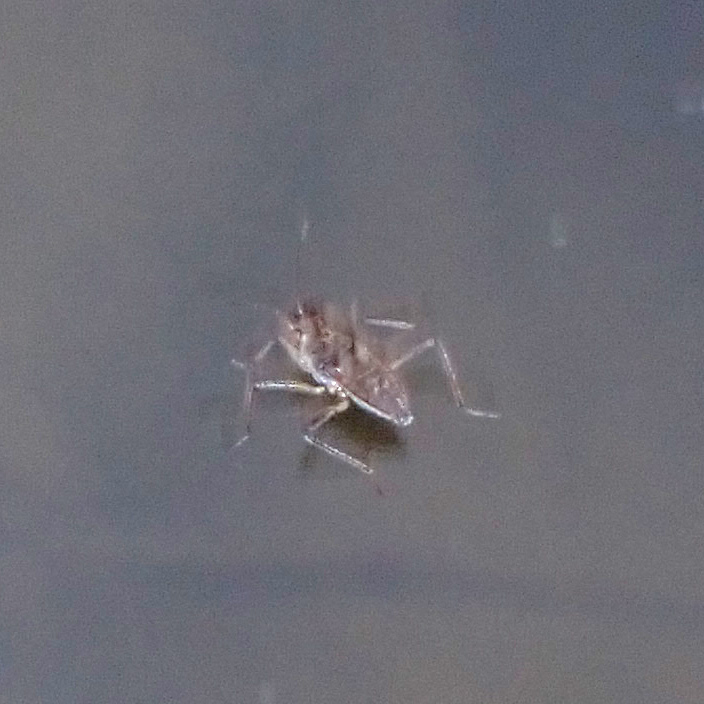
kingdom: Animalia
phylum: Arthropoda
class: Insecta
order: Hemiptera
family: Veliidae
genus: Microvelia
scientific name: Microvelia
